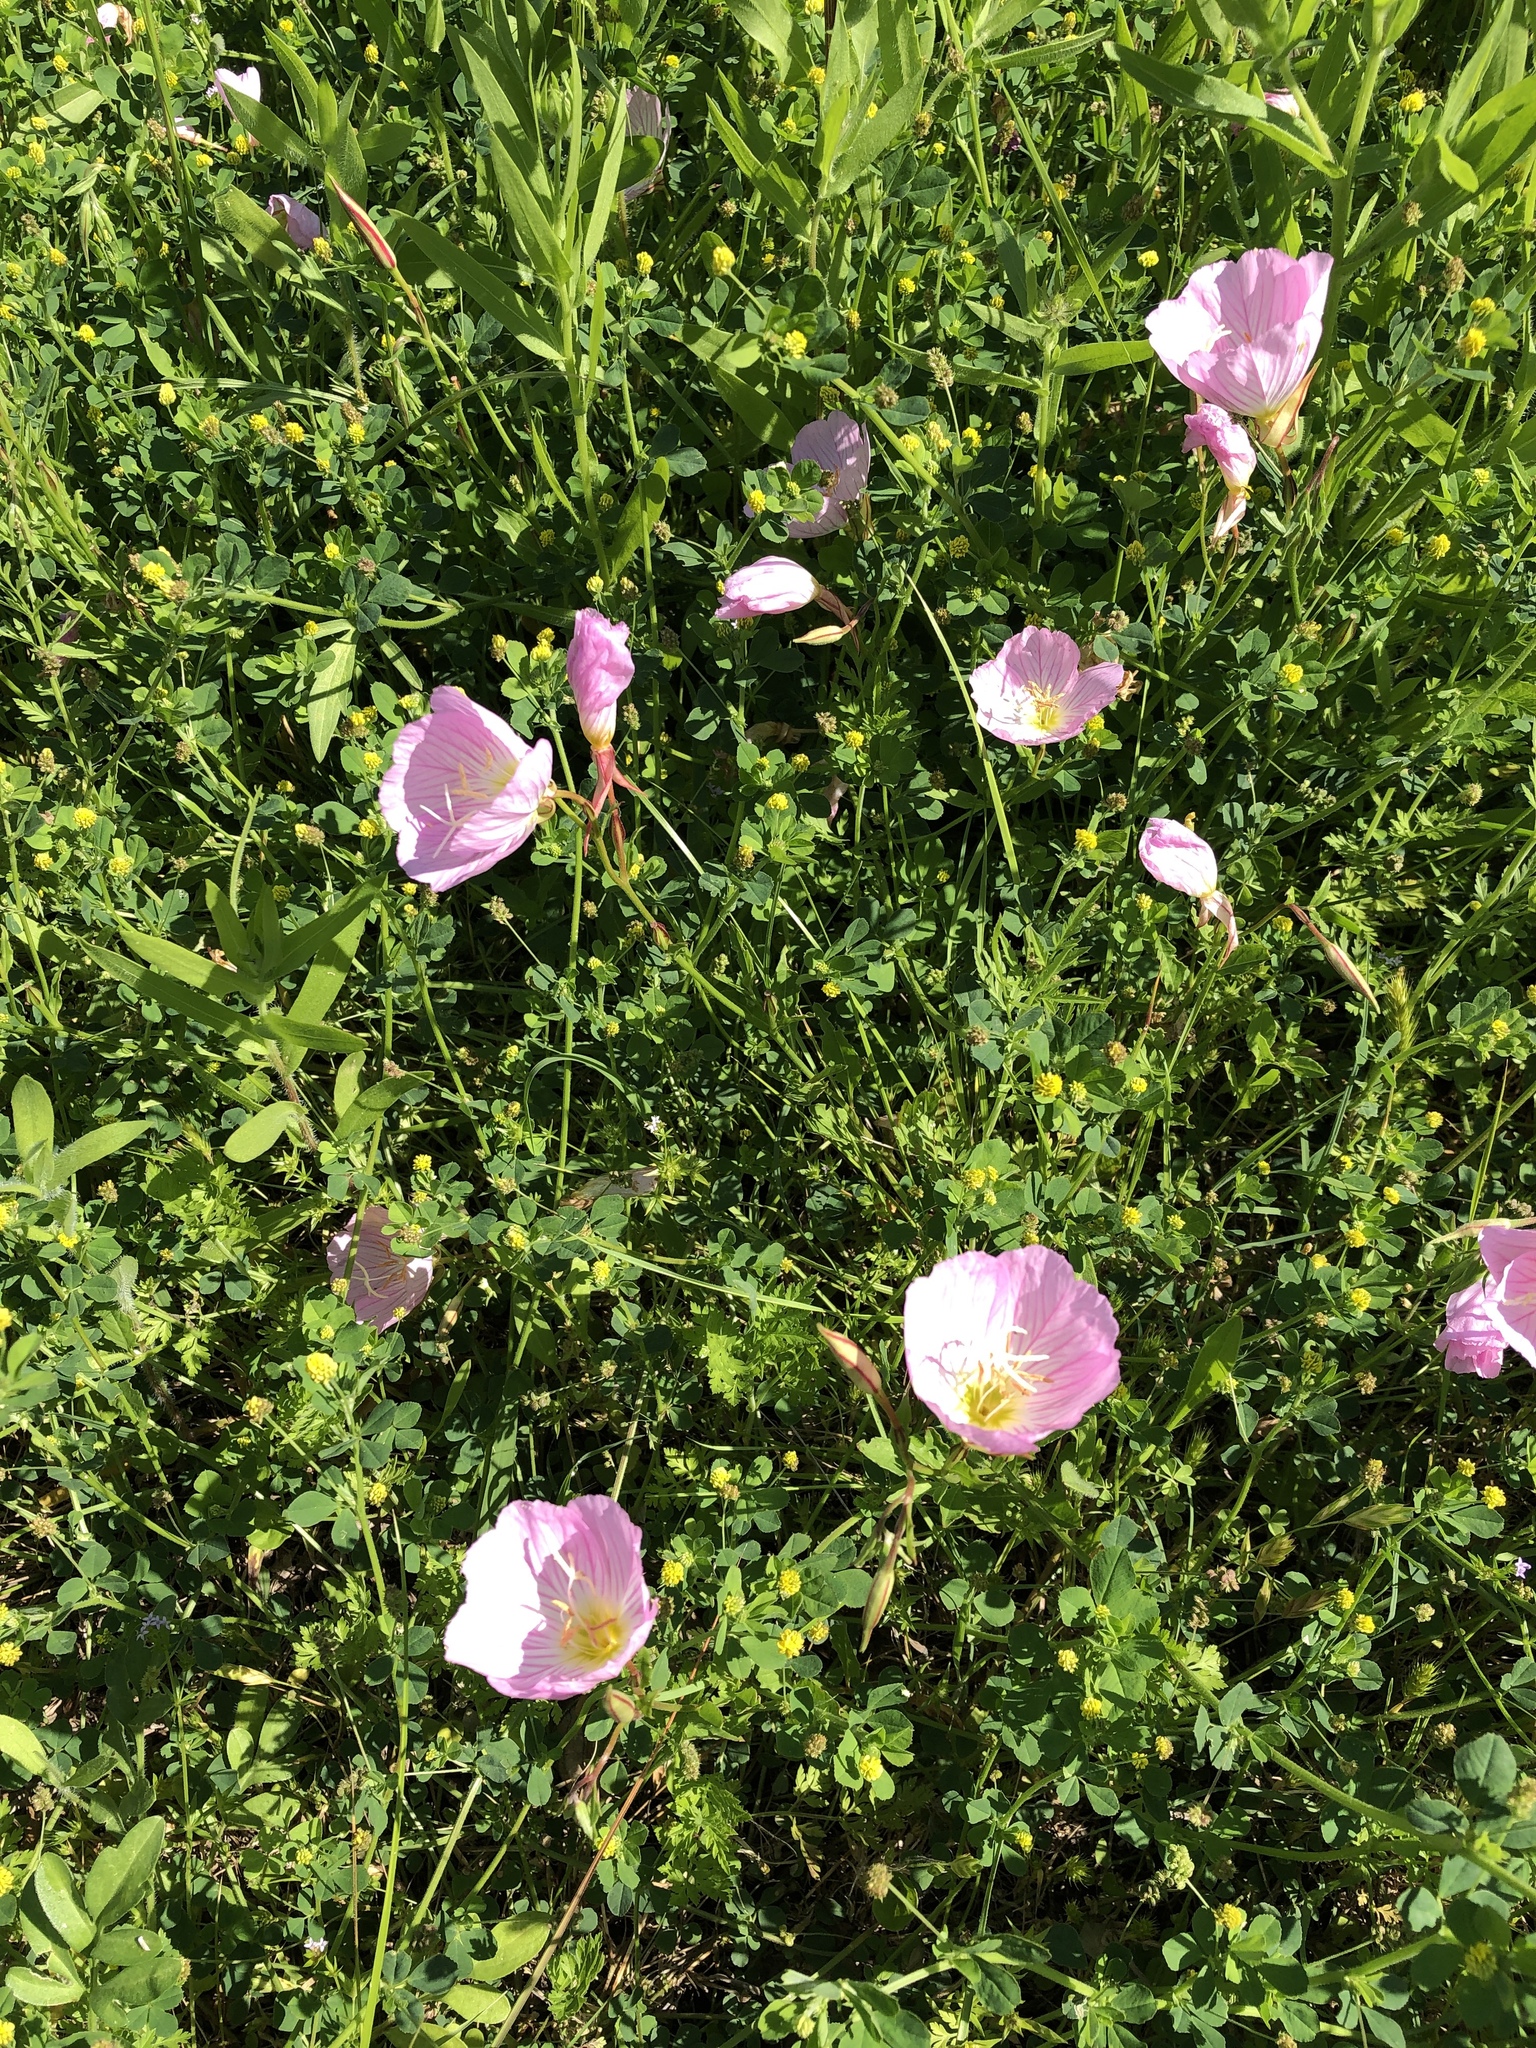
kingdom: Plantae
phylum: Tracheophyta
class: Magnoliopsida
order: Myrtales
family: Onagraceae
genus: Oenothera
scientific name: Oenothera speciosa
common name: White evening-primrose
